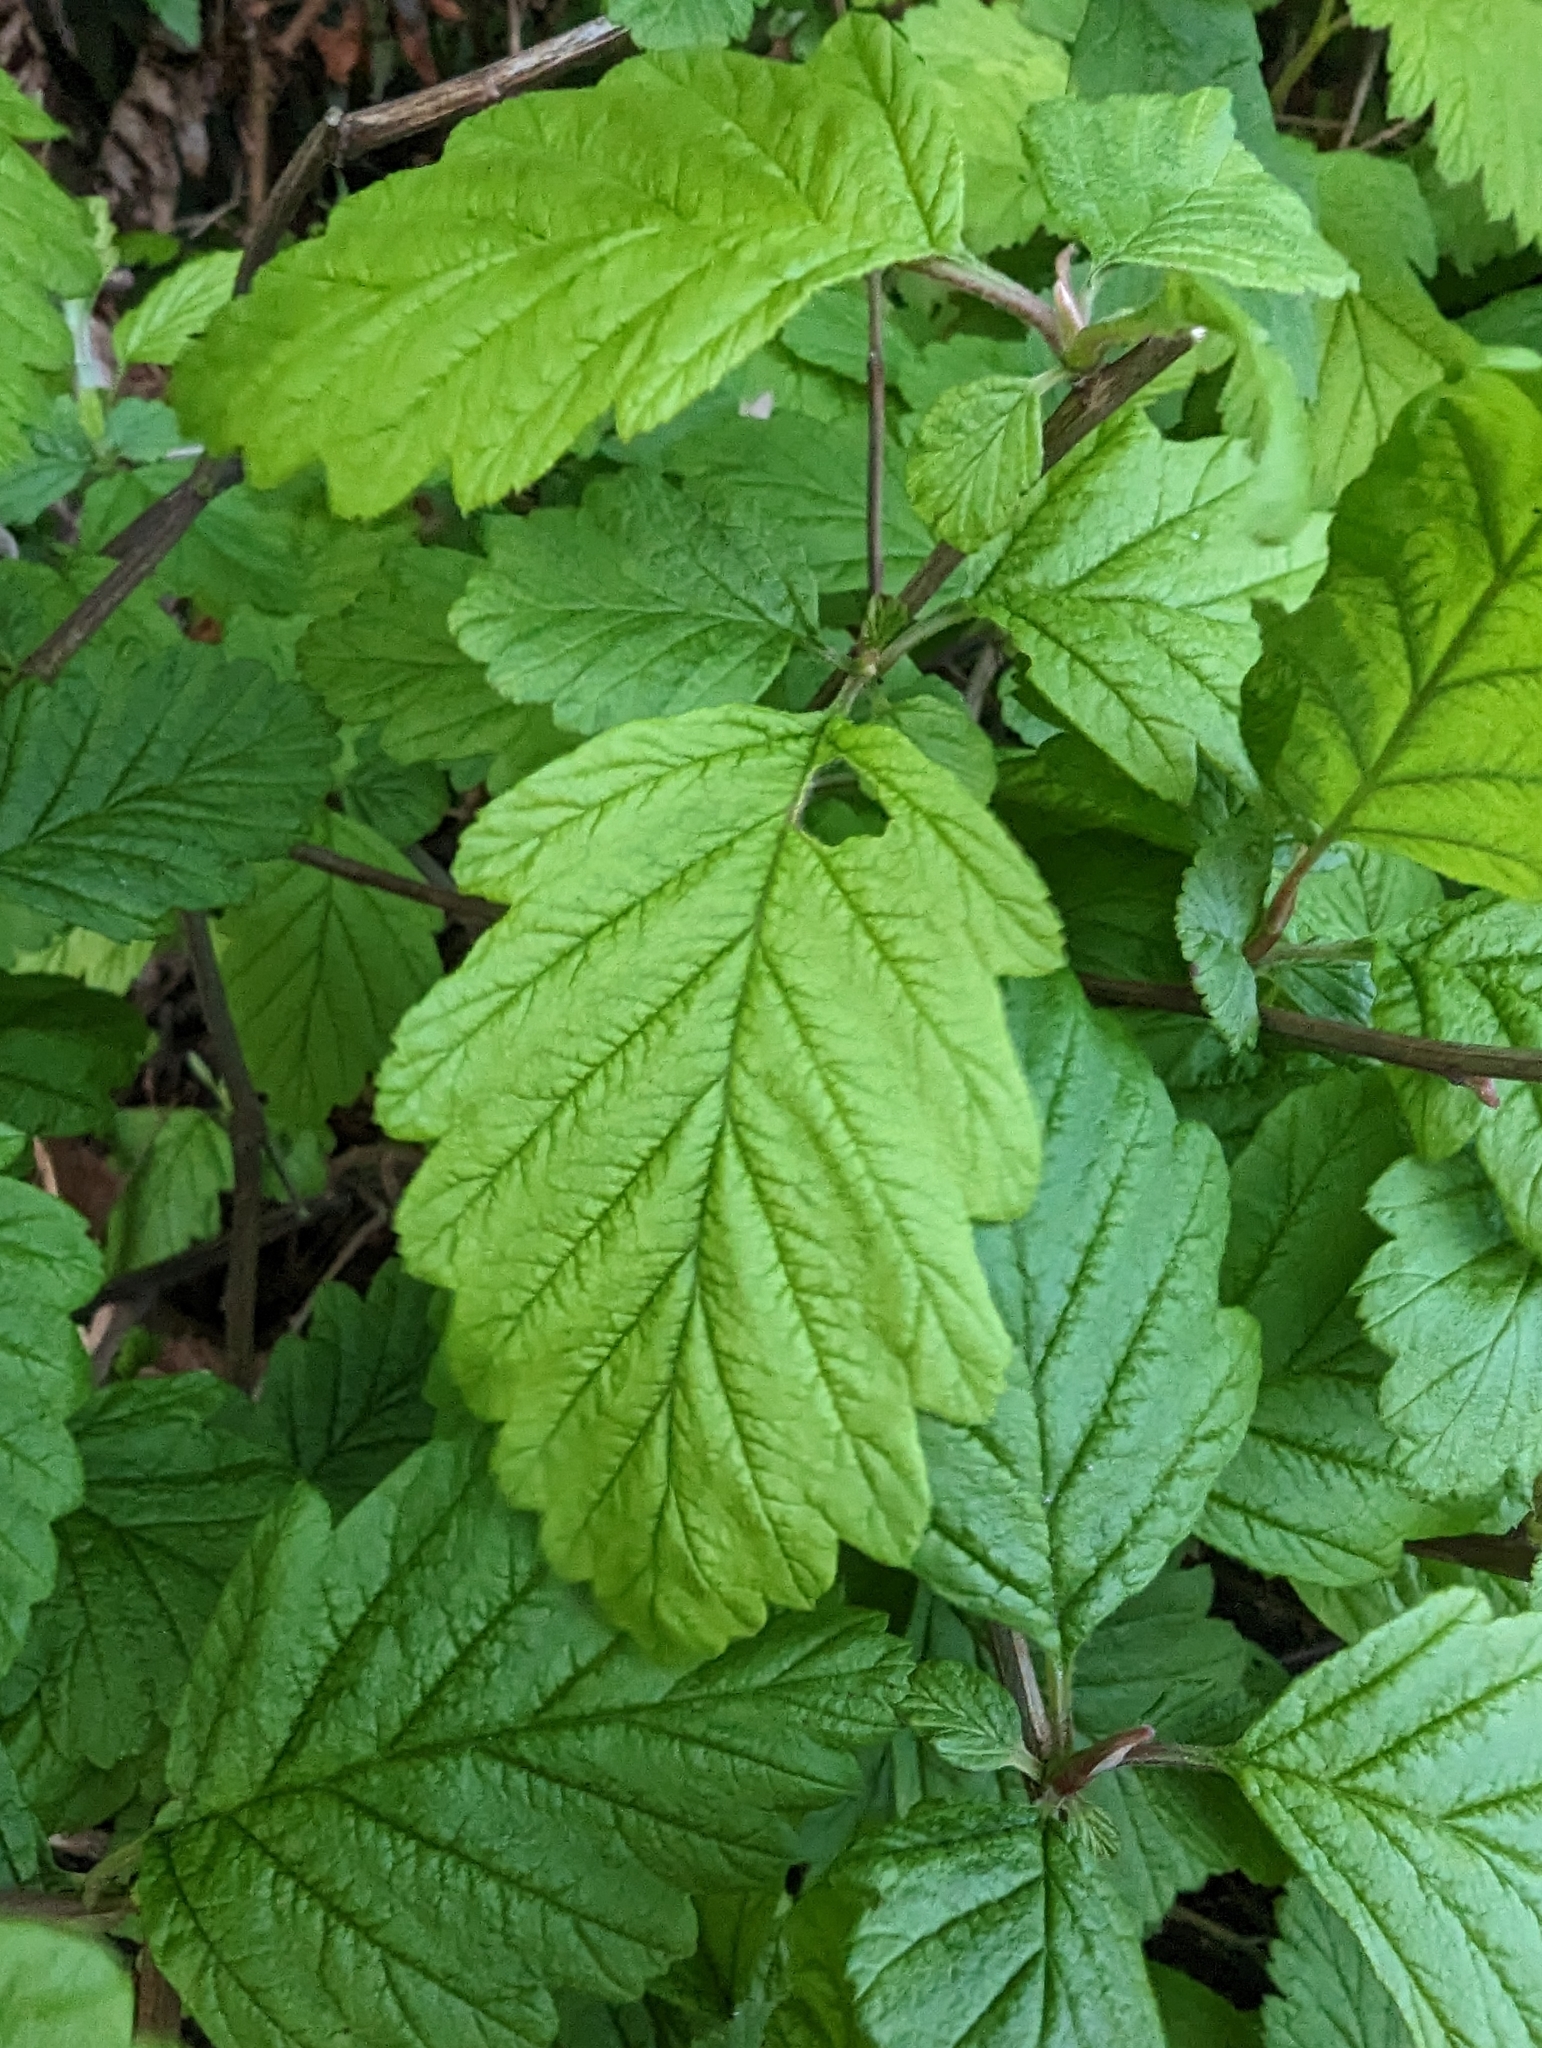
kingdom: Plantae
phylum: Tracheophyta
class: Magnoliopsida
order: Rosales
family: Rosaceae
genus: Holodiscus
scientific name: Holodiscus discolor
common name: Oceanspray
